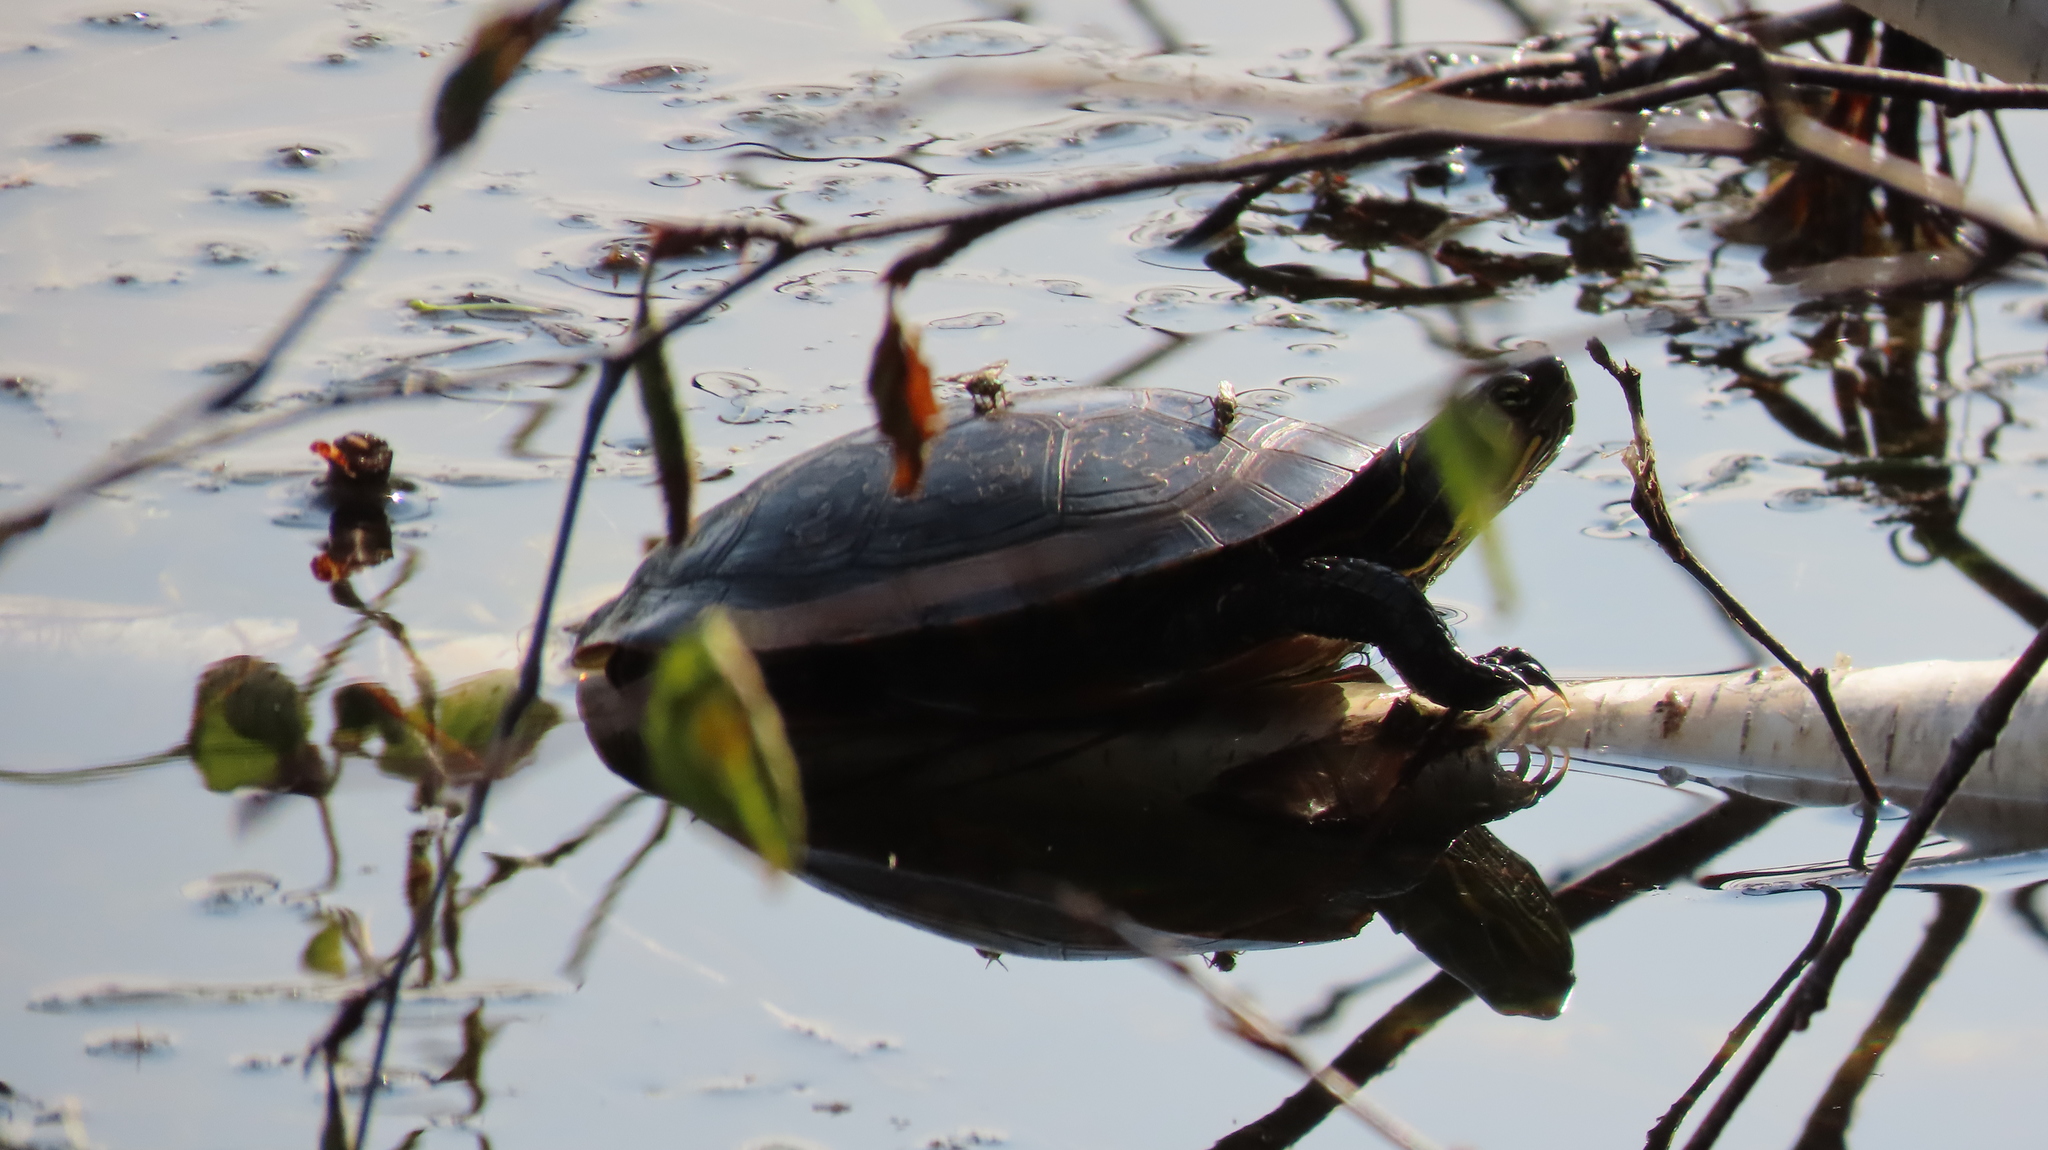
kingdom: Animalia
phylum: Chordata
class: Testudines
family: Emydidae
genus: Chrysemys
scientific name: Chrysemys picta
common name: Painted turtle
